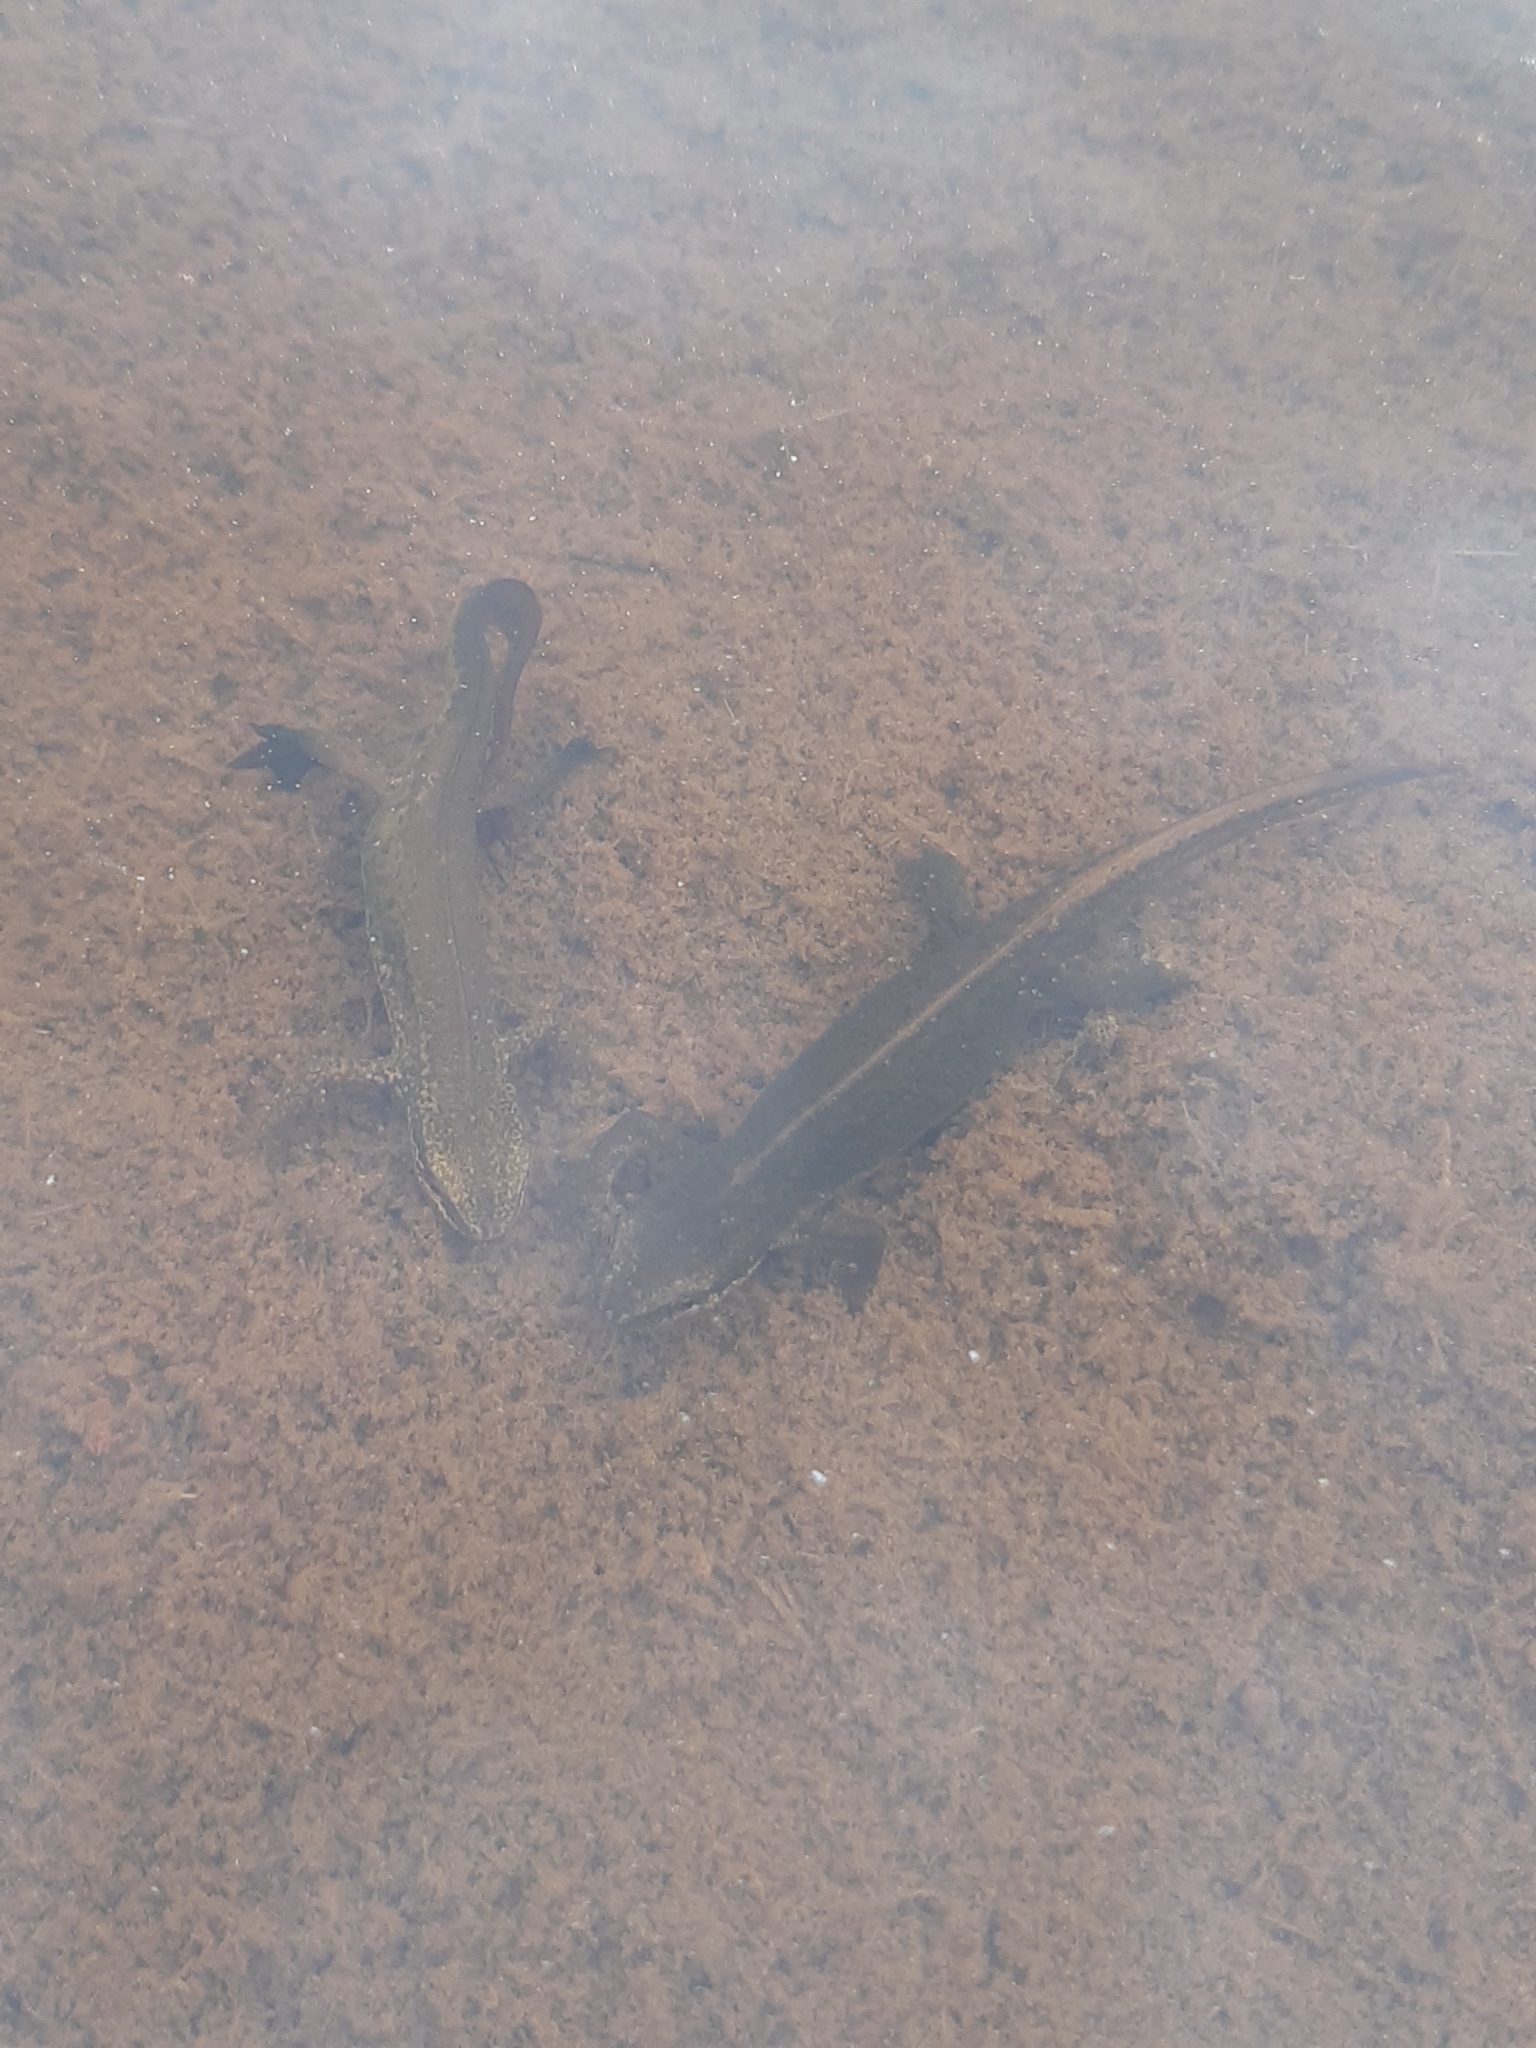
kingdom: Animalia
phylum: Chordata
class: Amphibia
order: Caudata
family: Salamandridae
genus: Lissotriton
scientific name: Lissotriton helveticus
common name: Palmate newt
